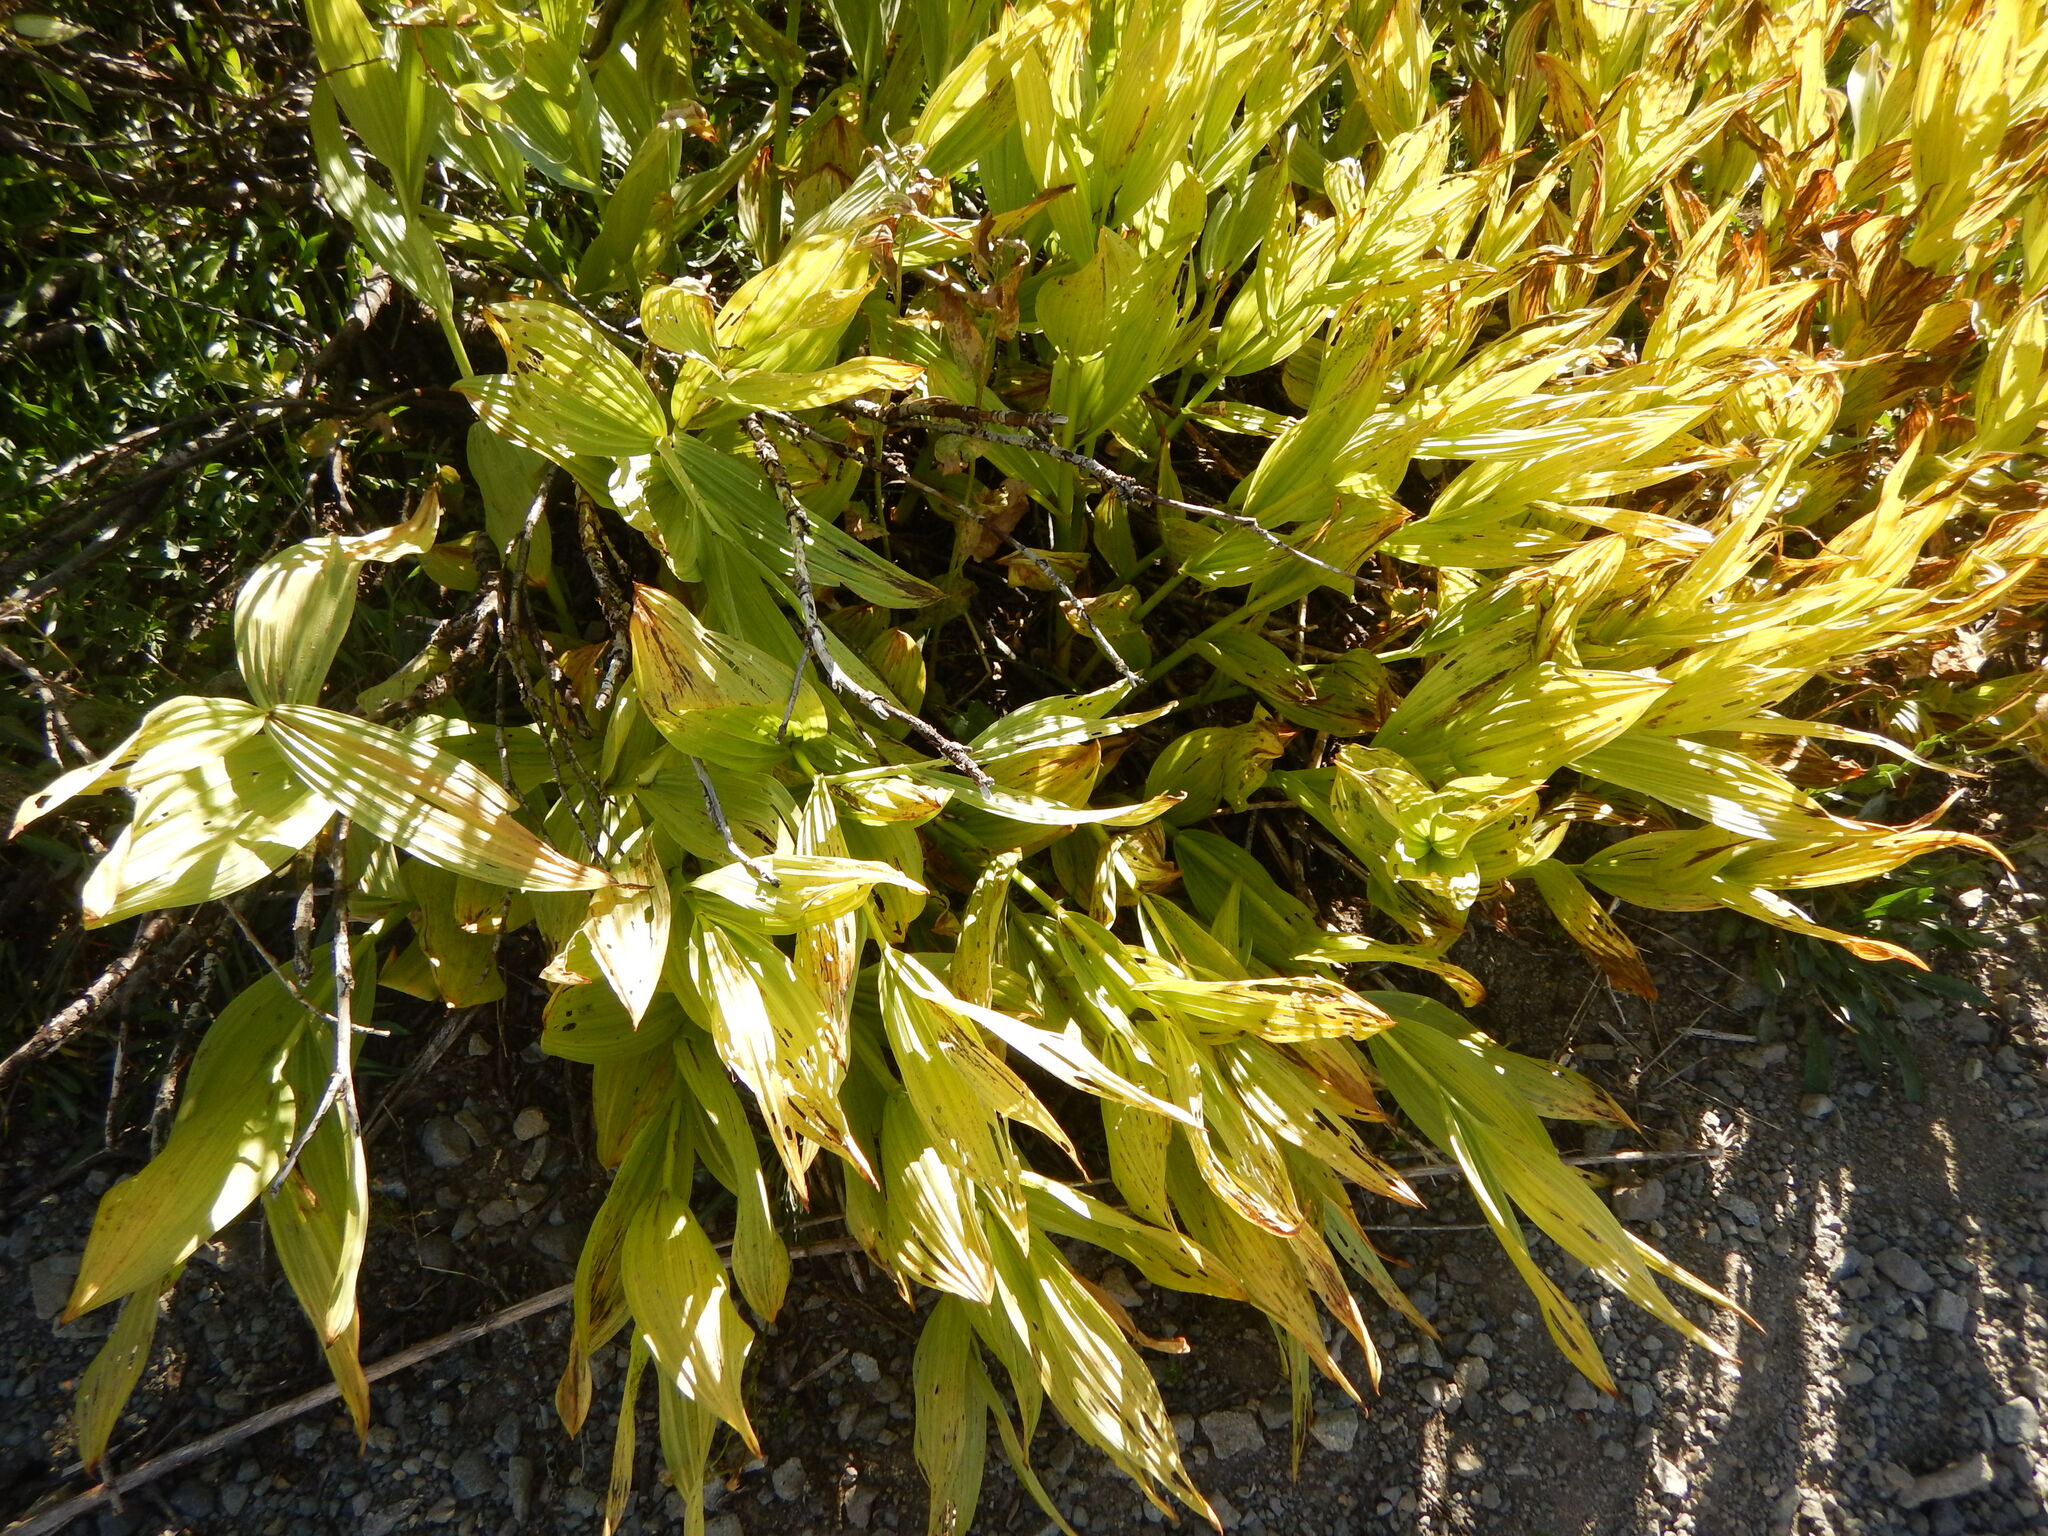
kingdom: Plantae
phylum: Tracheophyta
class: Liliopsida
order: Liliales
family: Melanthiaceae
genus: Veratrum
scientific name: Veratrum californicum
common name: California veratrum
